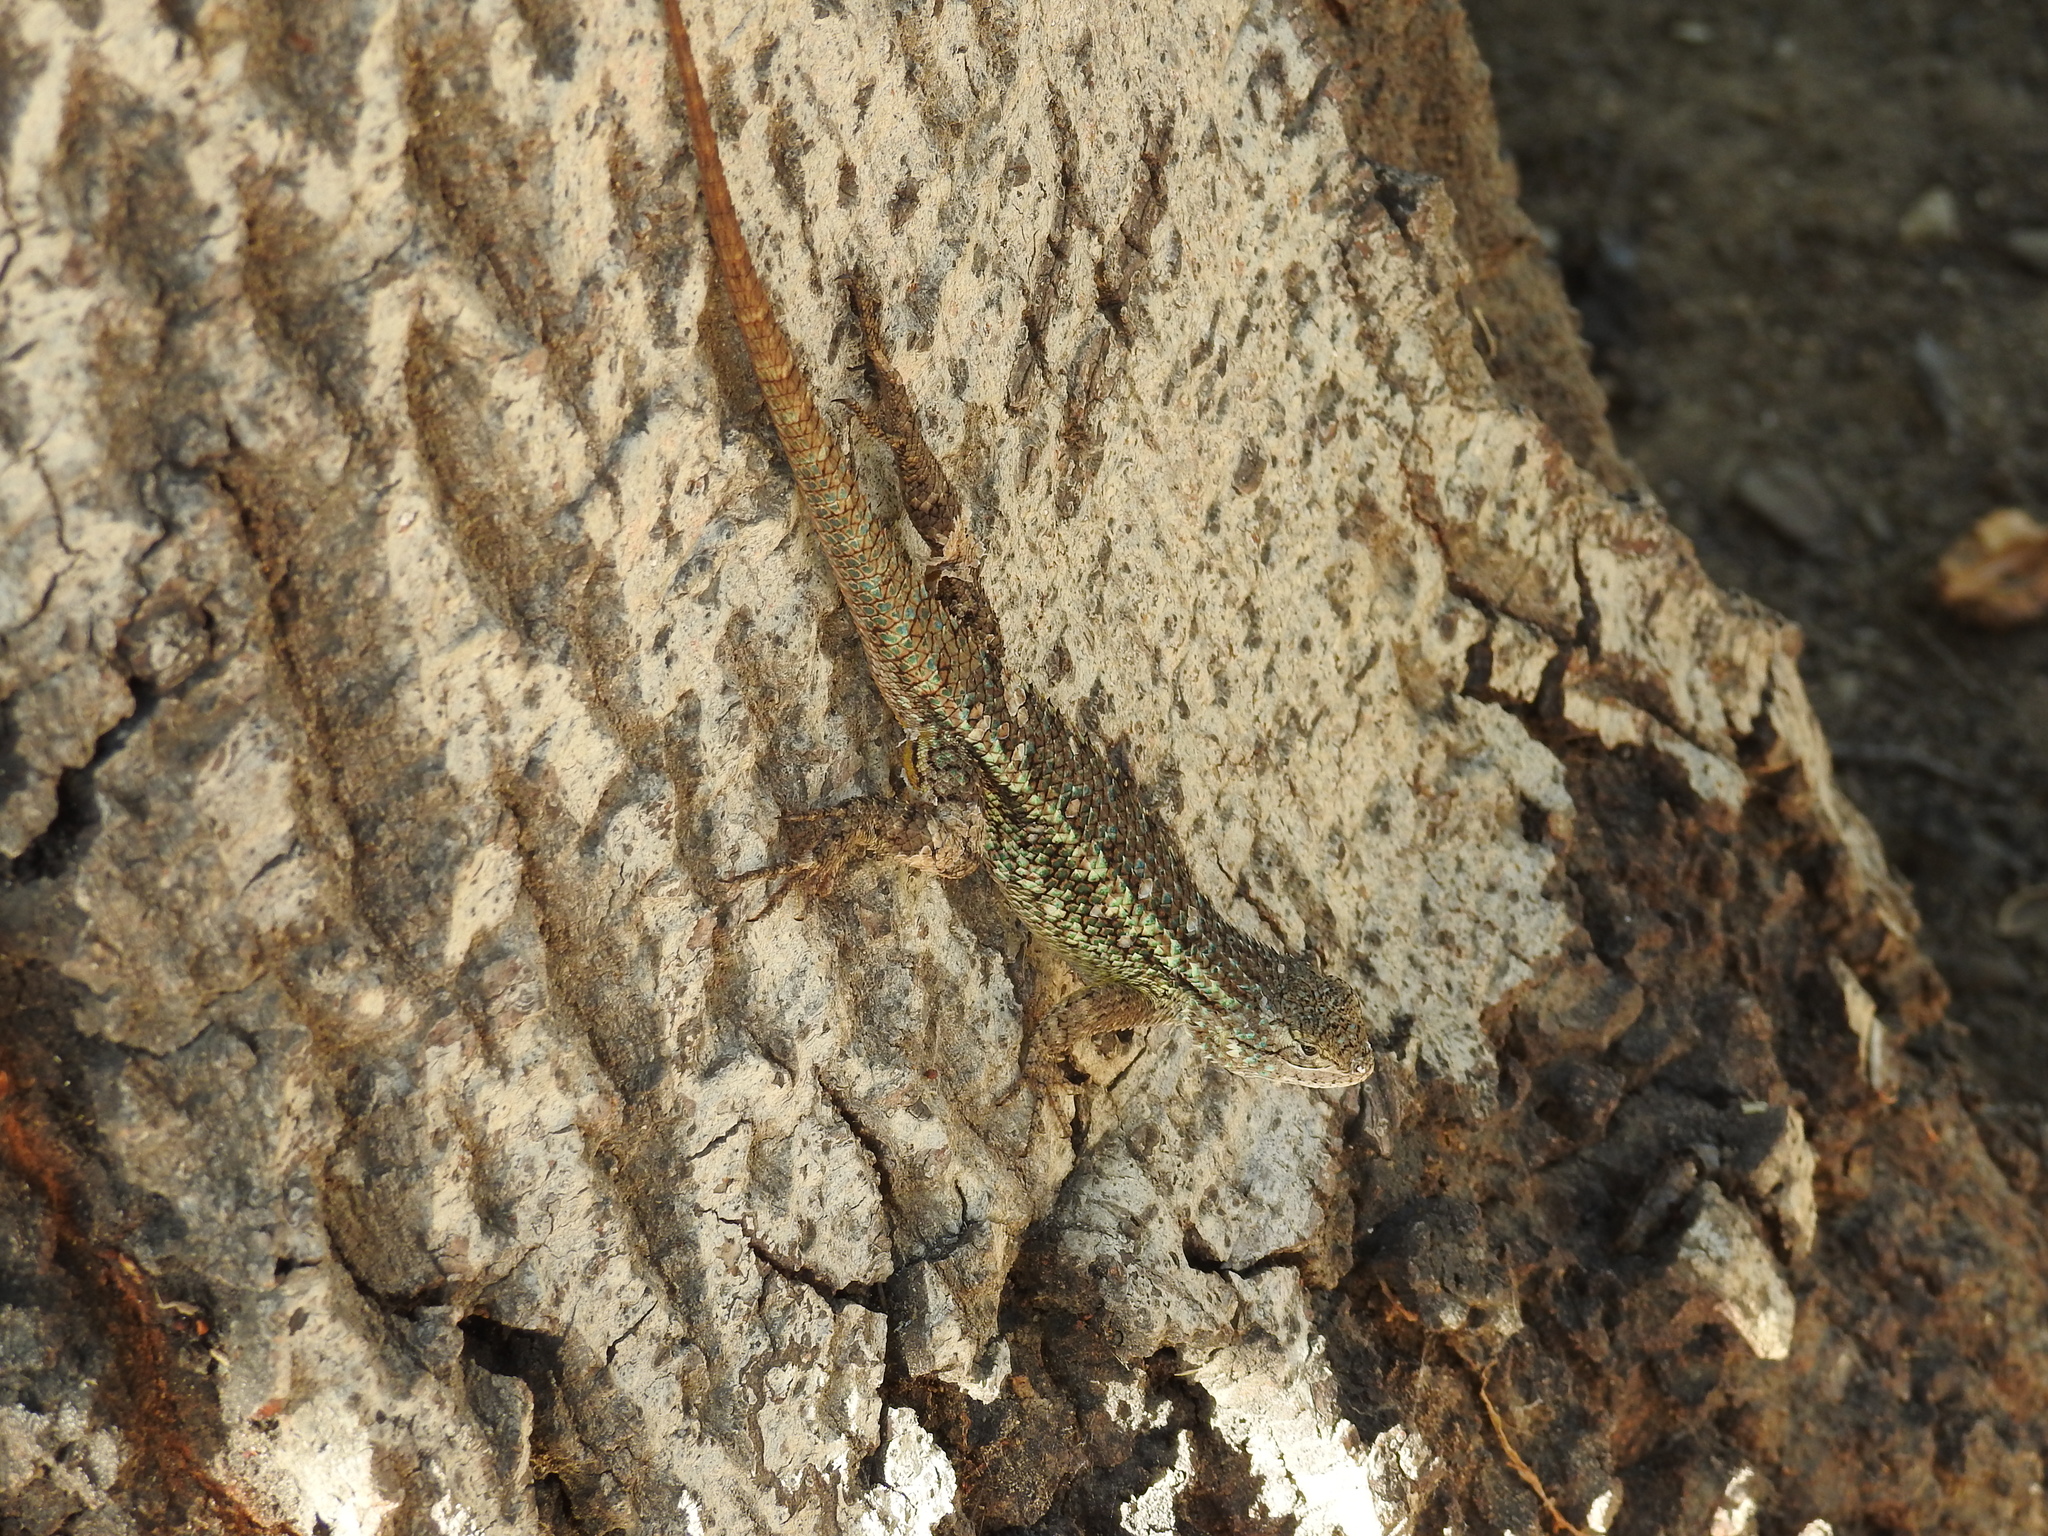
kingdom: Animalia
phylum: Chordata
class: Squamata
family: Phrynosomatidae
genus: Sceloporus
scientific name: Sceloporus occidentalis
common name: Western fence lizard
